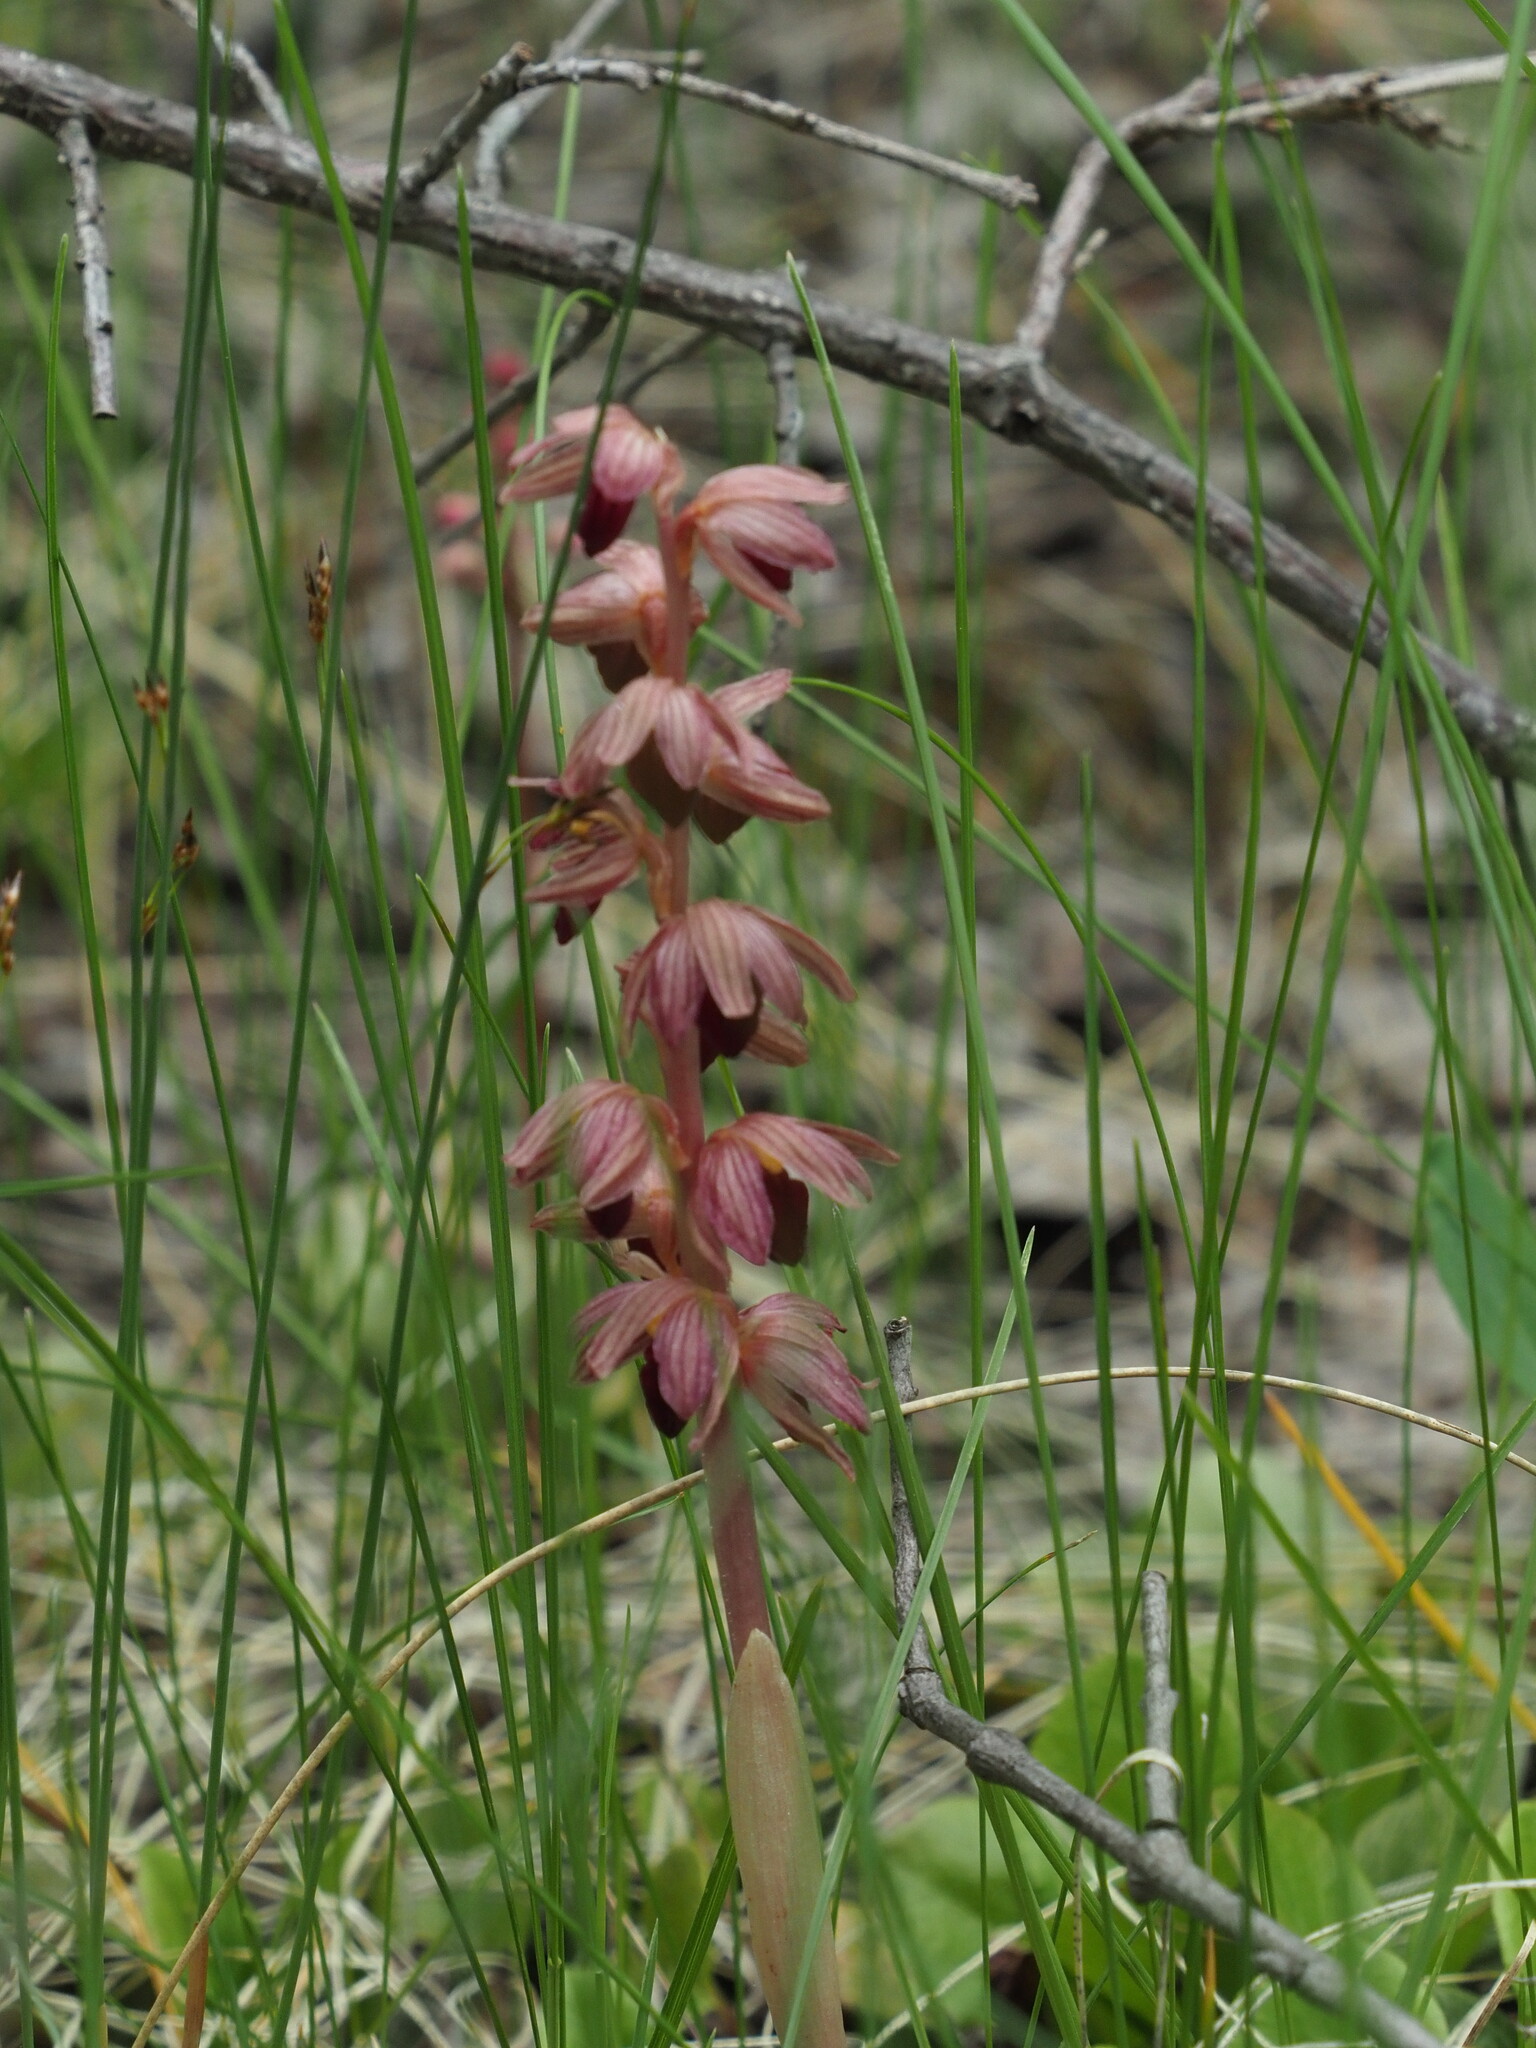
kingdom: Plantae
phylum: Tracheophyta
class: Liliopsida
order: Asparagales
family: Orchidaceae
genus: Corallorhiza
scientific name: Corallorhiza striata
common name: Hooded coralroot
